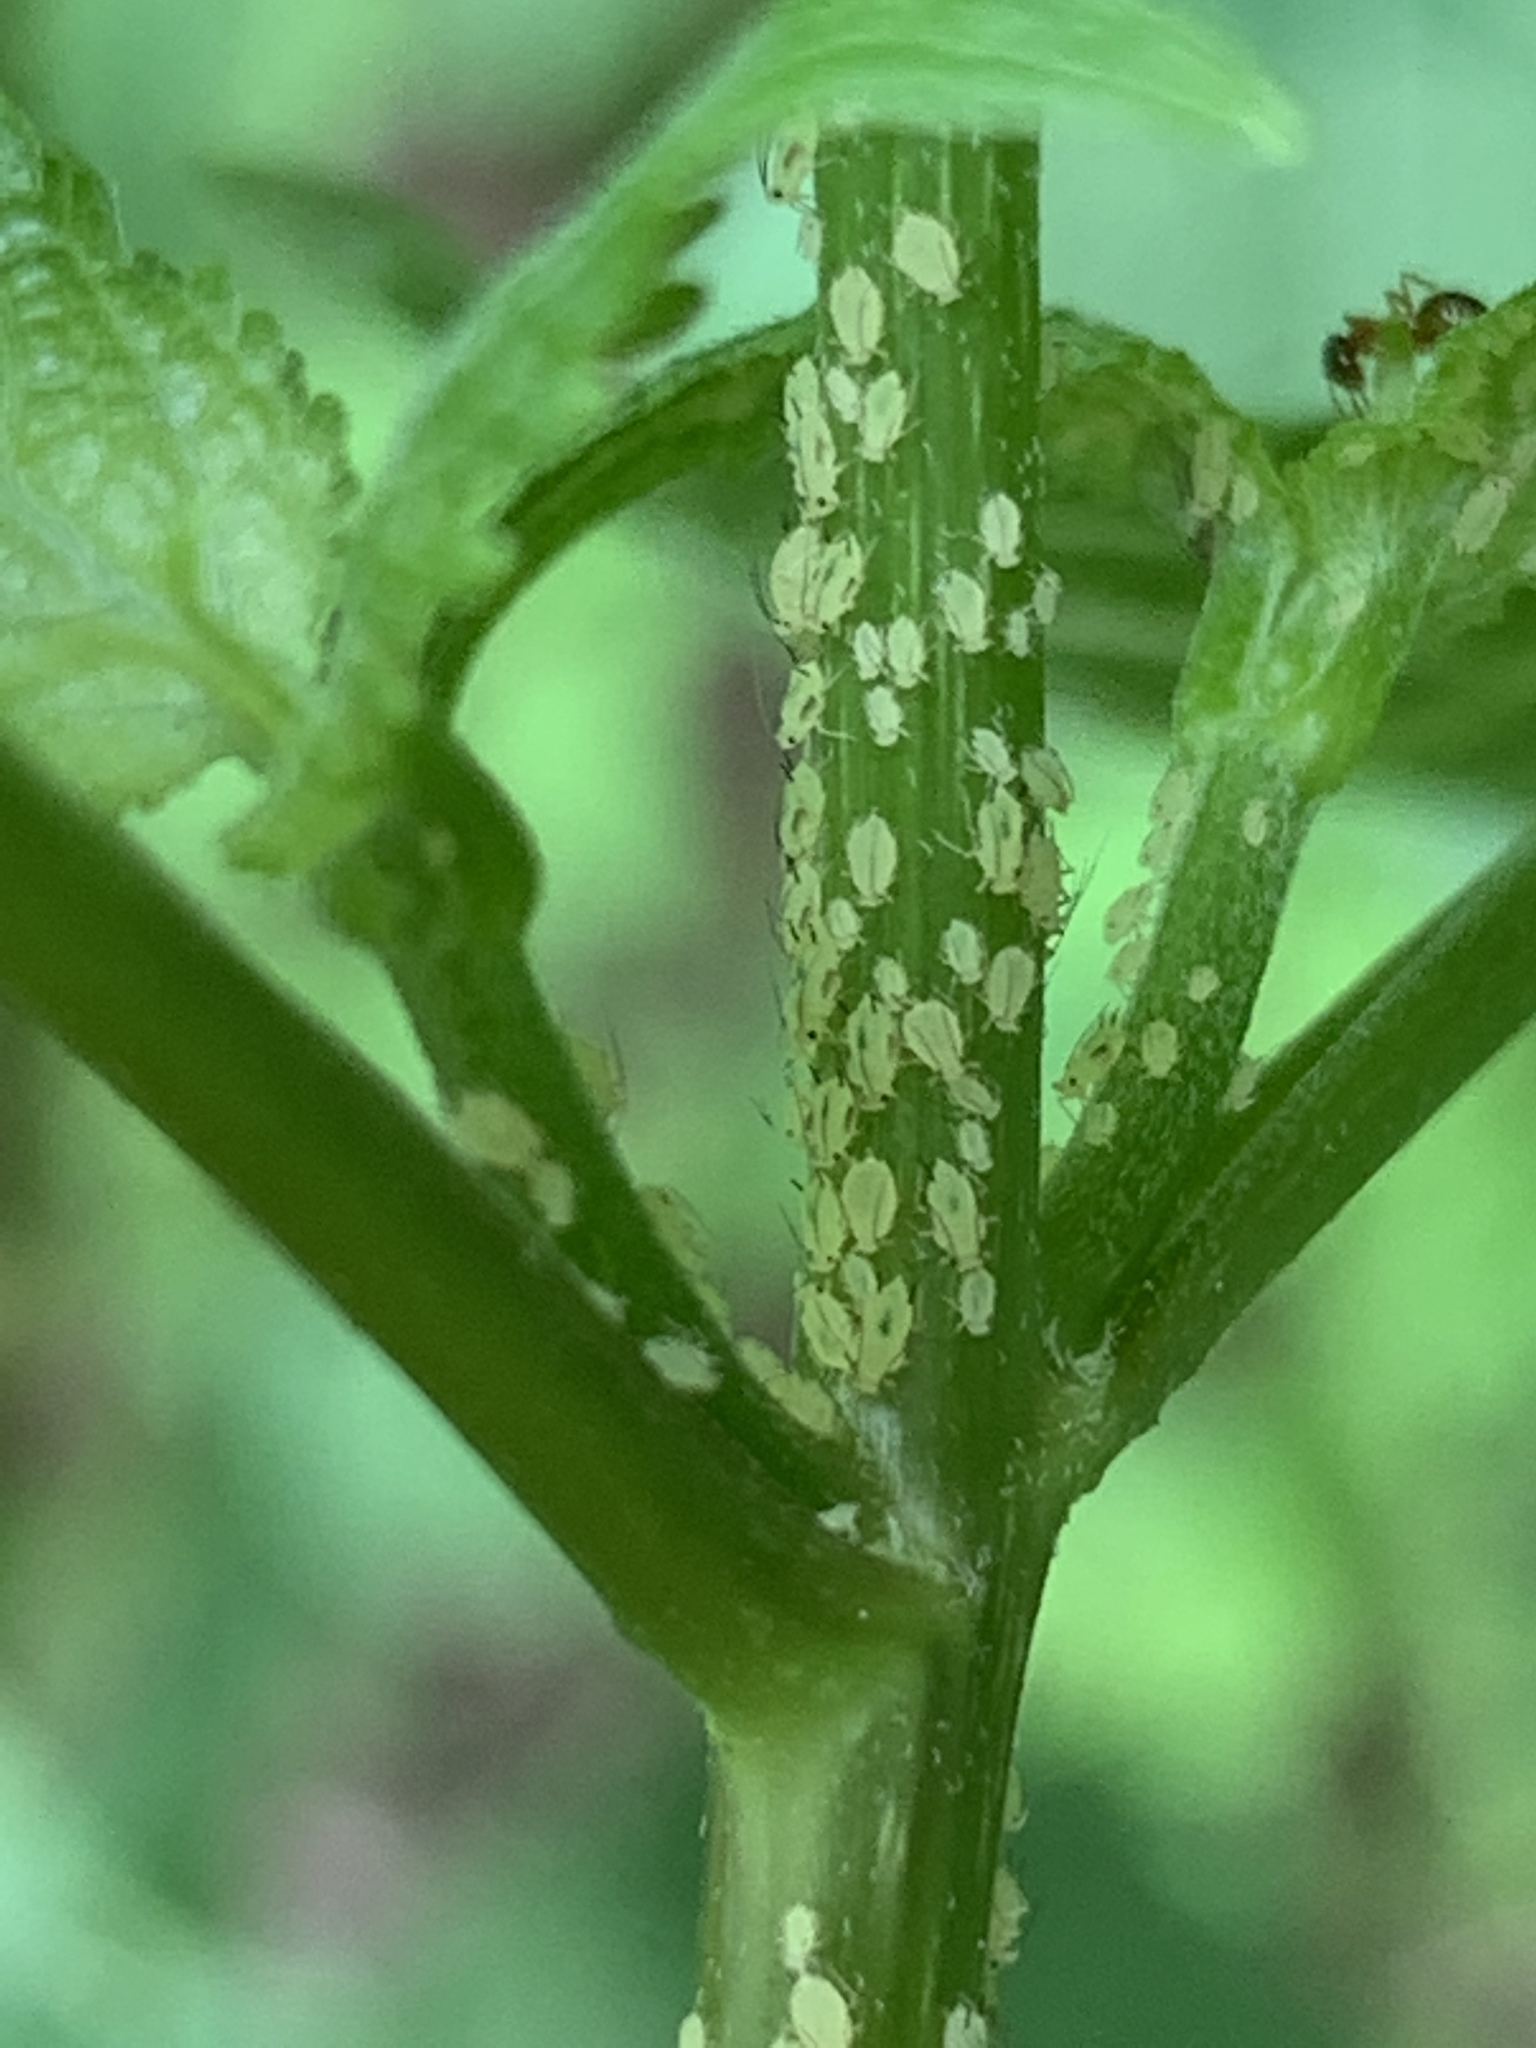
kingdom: Animalia
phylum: Arthropoda
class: Insecta
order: Hemiptera
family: Aphididae
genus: Aphis
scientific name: Aphis coreopsidis
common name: Aphid
